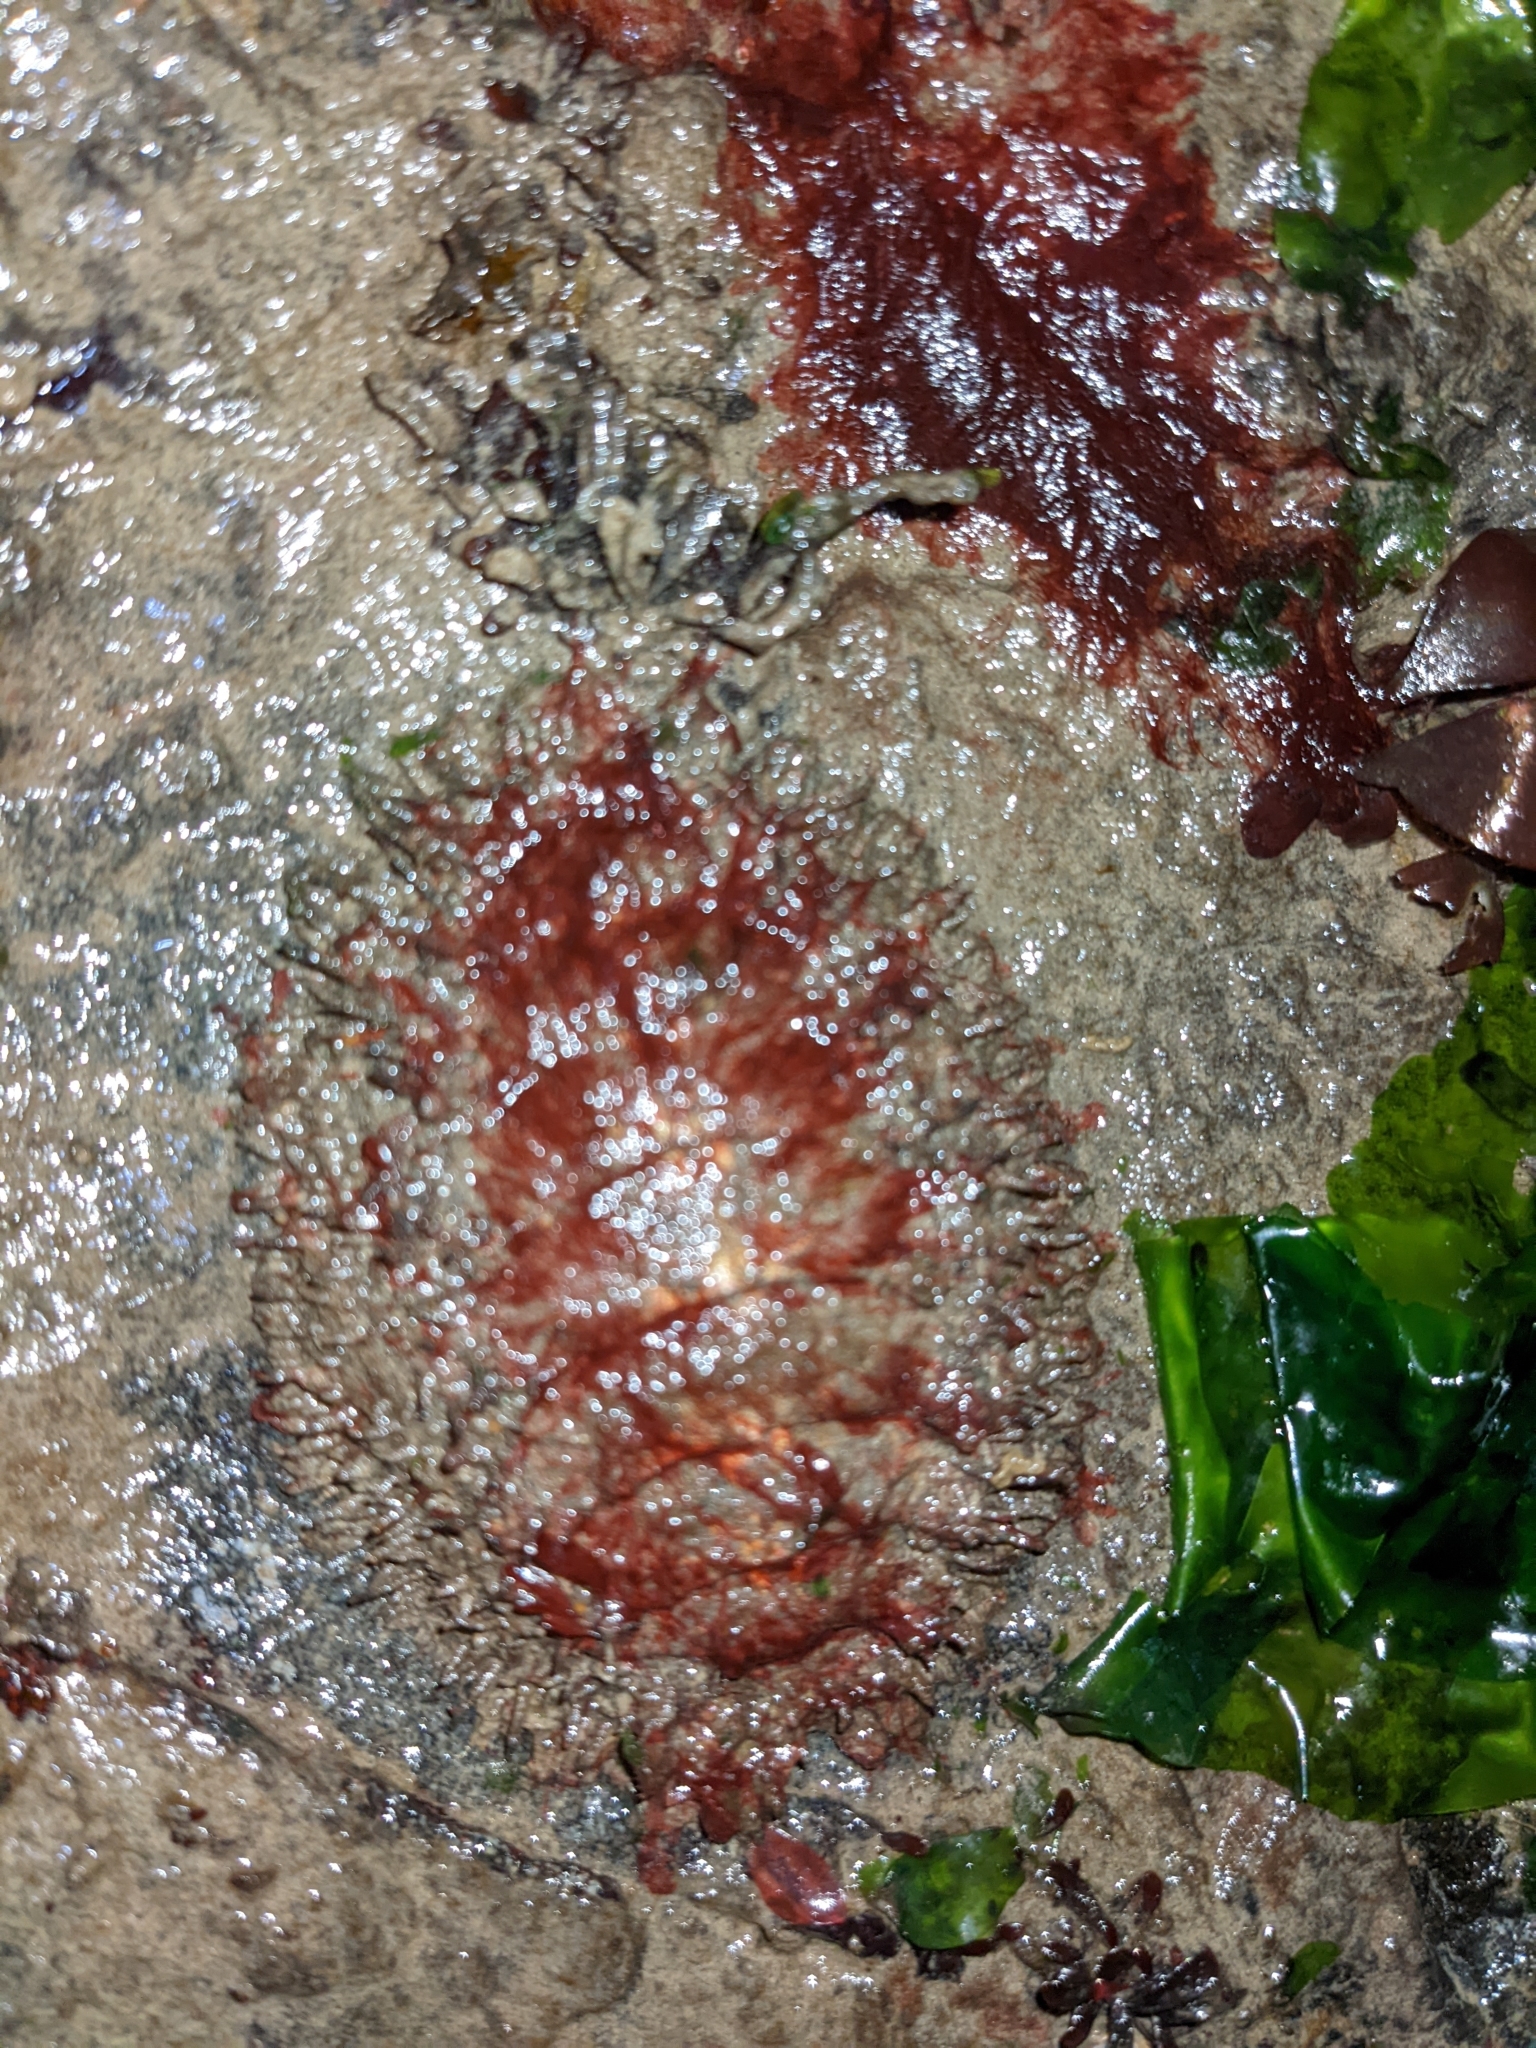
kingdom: Animalia
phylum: Mollusca
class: Polyplacophora
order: Chitonida
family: Mopaliidae
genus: Mopalia
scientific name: Mopalia muscosa
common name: Mossy chiton
